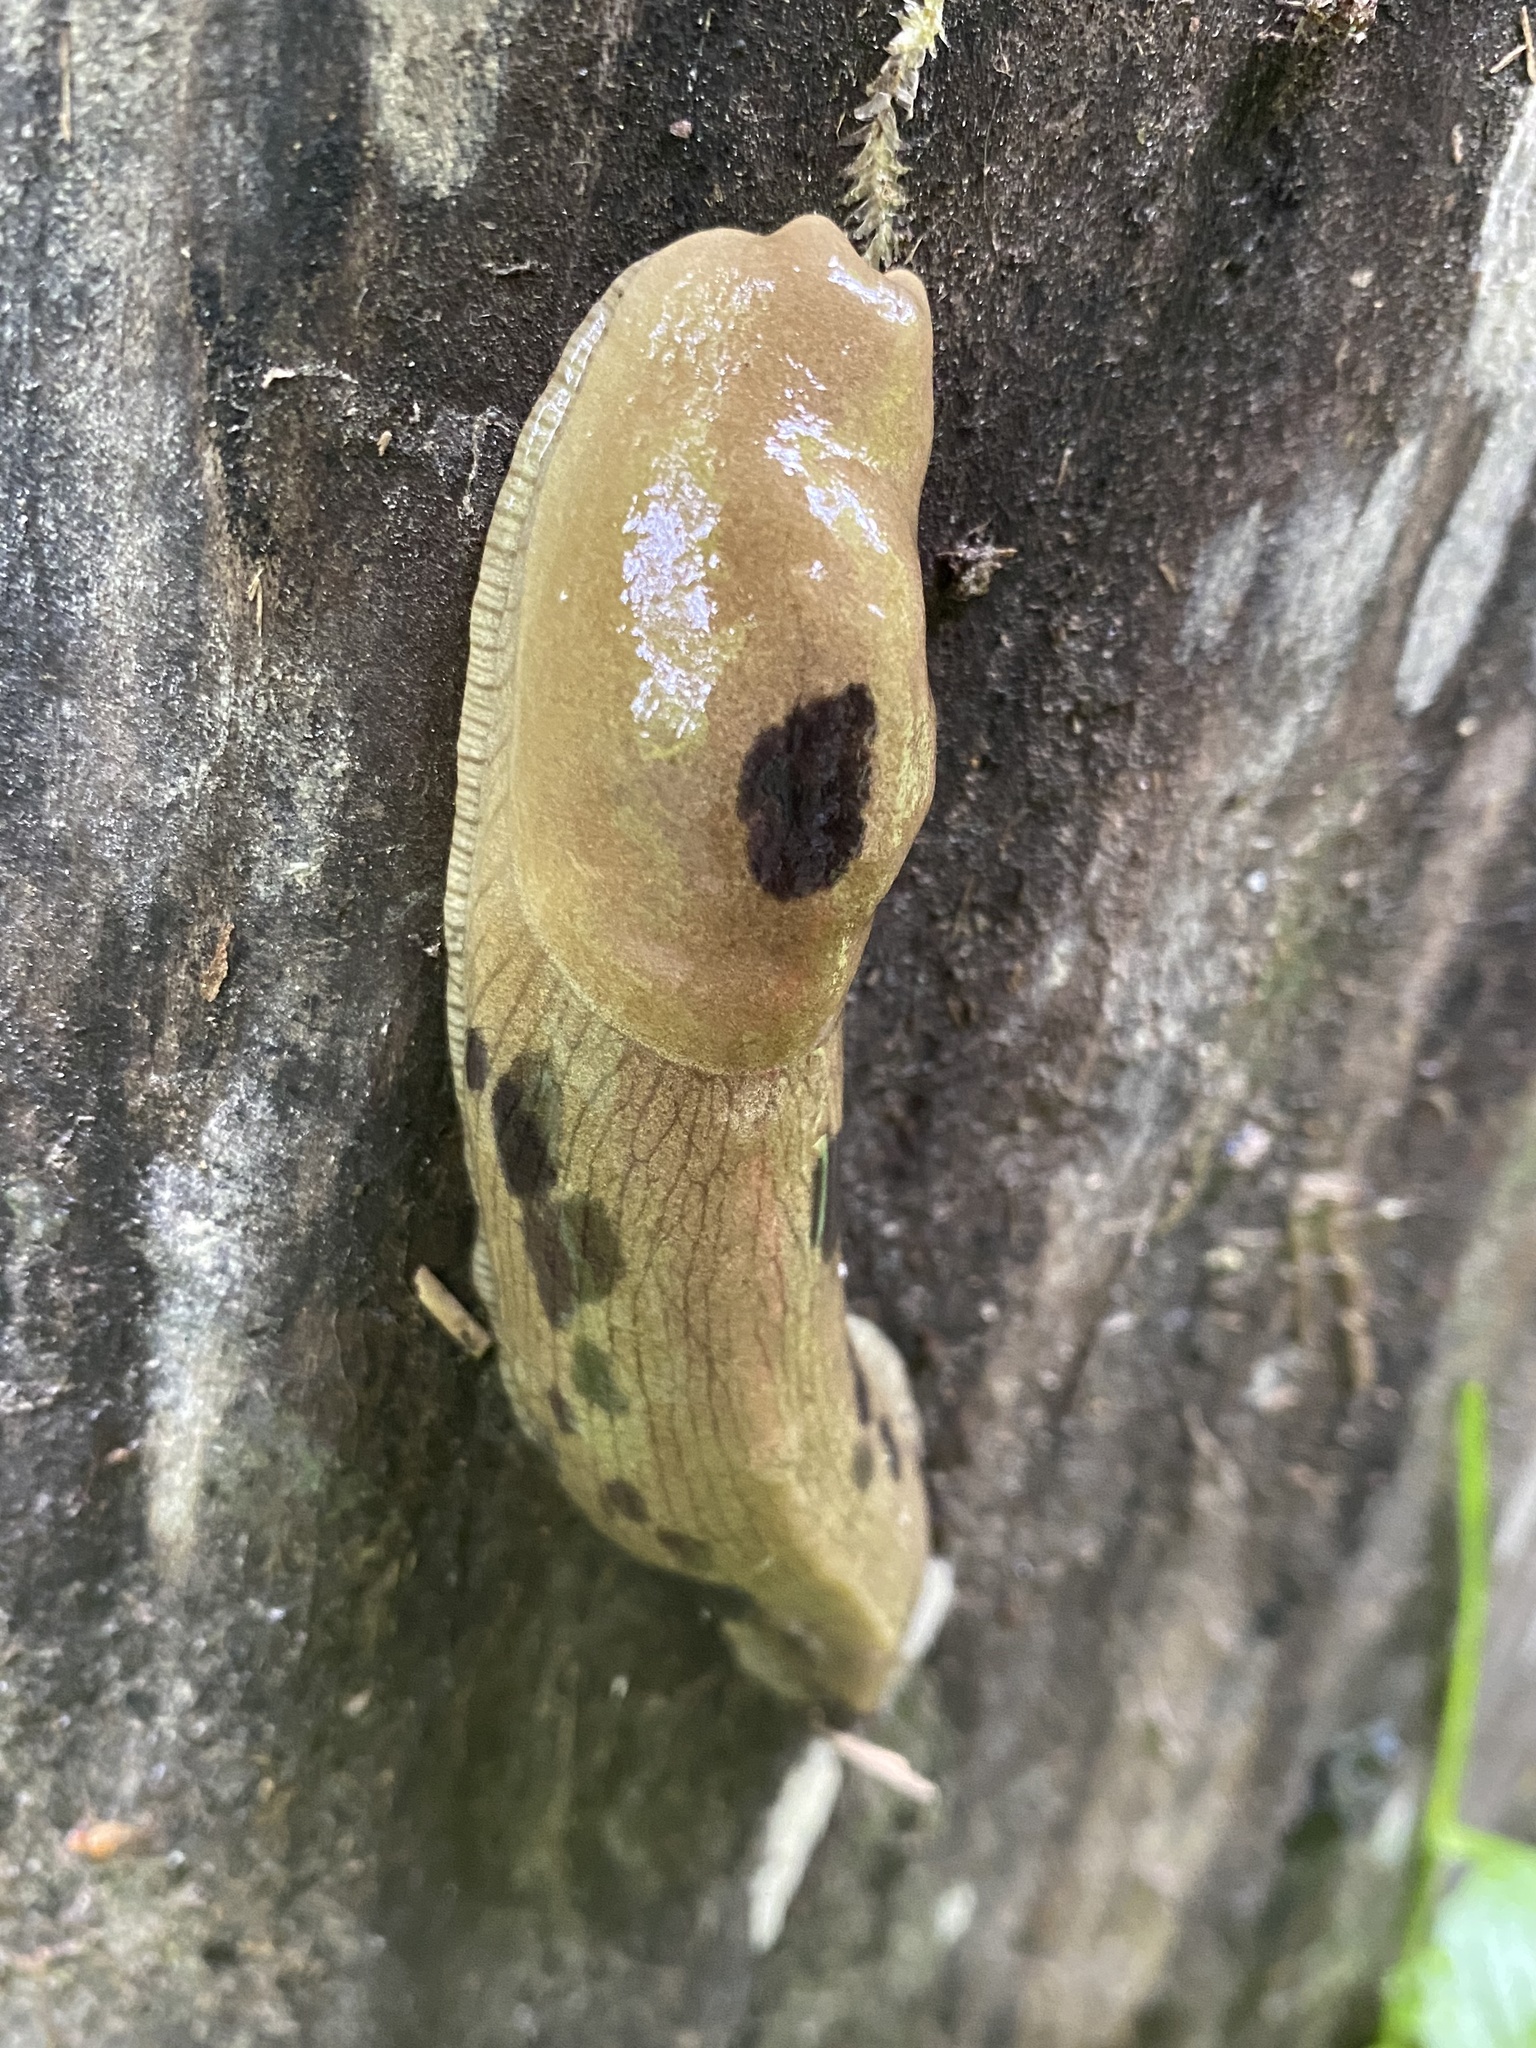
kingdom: Animalia
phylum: Mollusca
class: Gastropoda
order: Stylommatophora
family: Ariolimacidae
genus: Ariolimax
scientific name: Ariolimax columbianus
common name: Pacific banana slug
